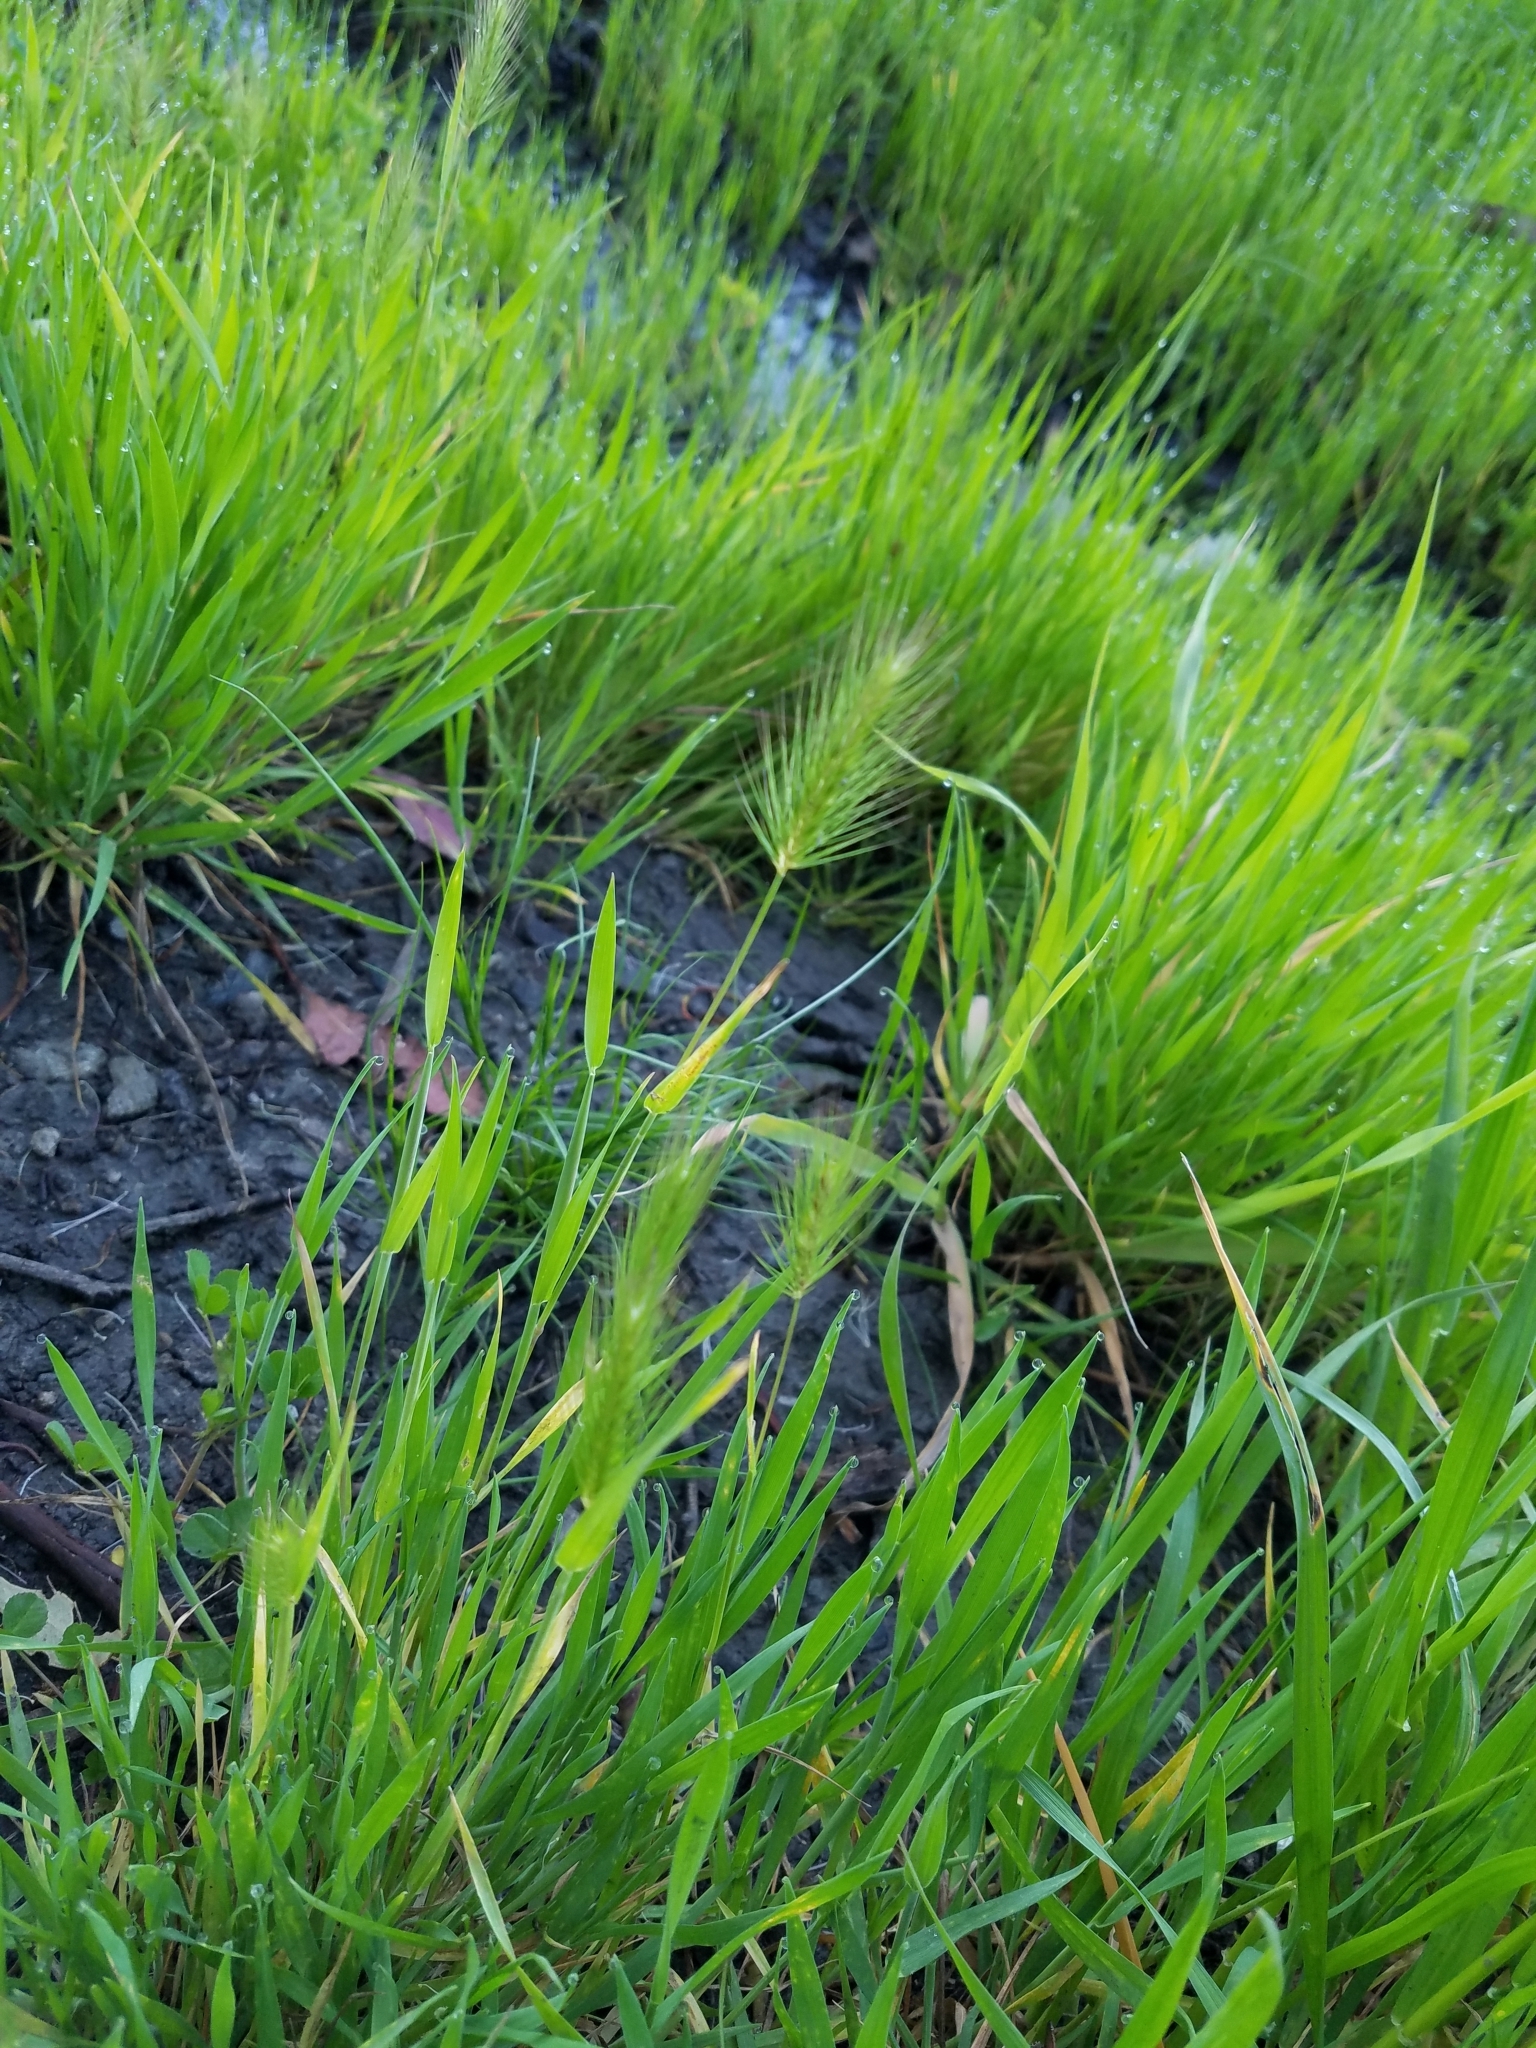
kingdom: Plantae
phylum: Tracheophyta
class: Liliopsida
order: Poales
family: Poaceae
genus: Hordeum
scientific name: Hordeum marinum
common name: Sea barley
